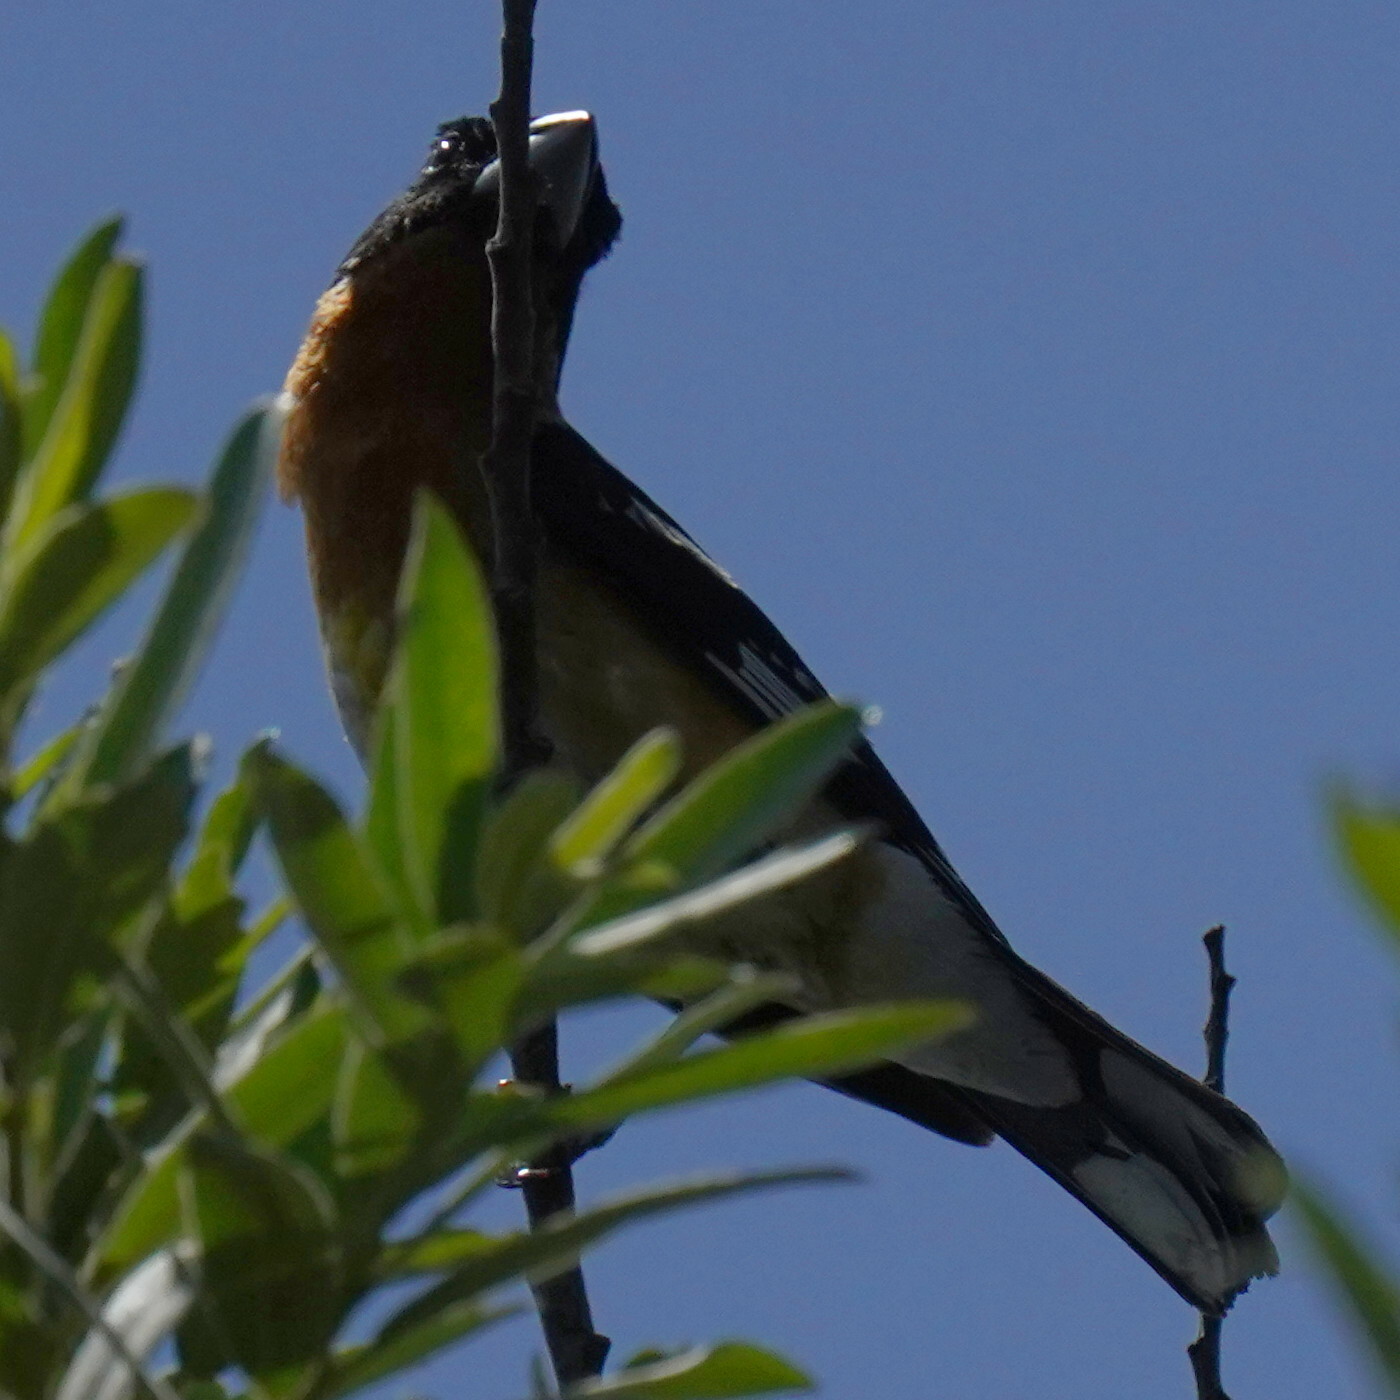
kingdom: Animalia
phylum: Chordata
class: Aves
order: Passeriformes
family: Cardinalidae
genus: Pheucticus
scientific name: Pheucticus melanocephalus
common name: Black-headed grosbeak
